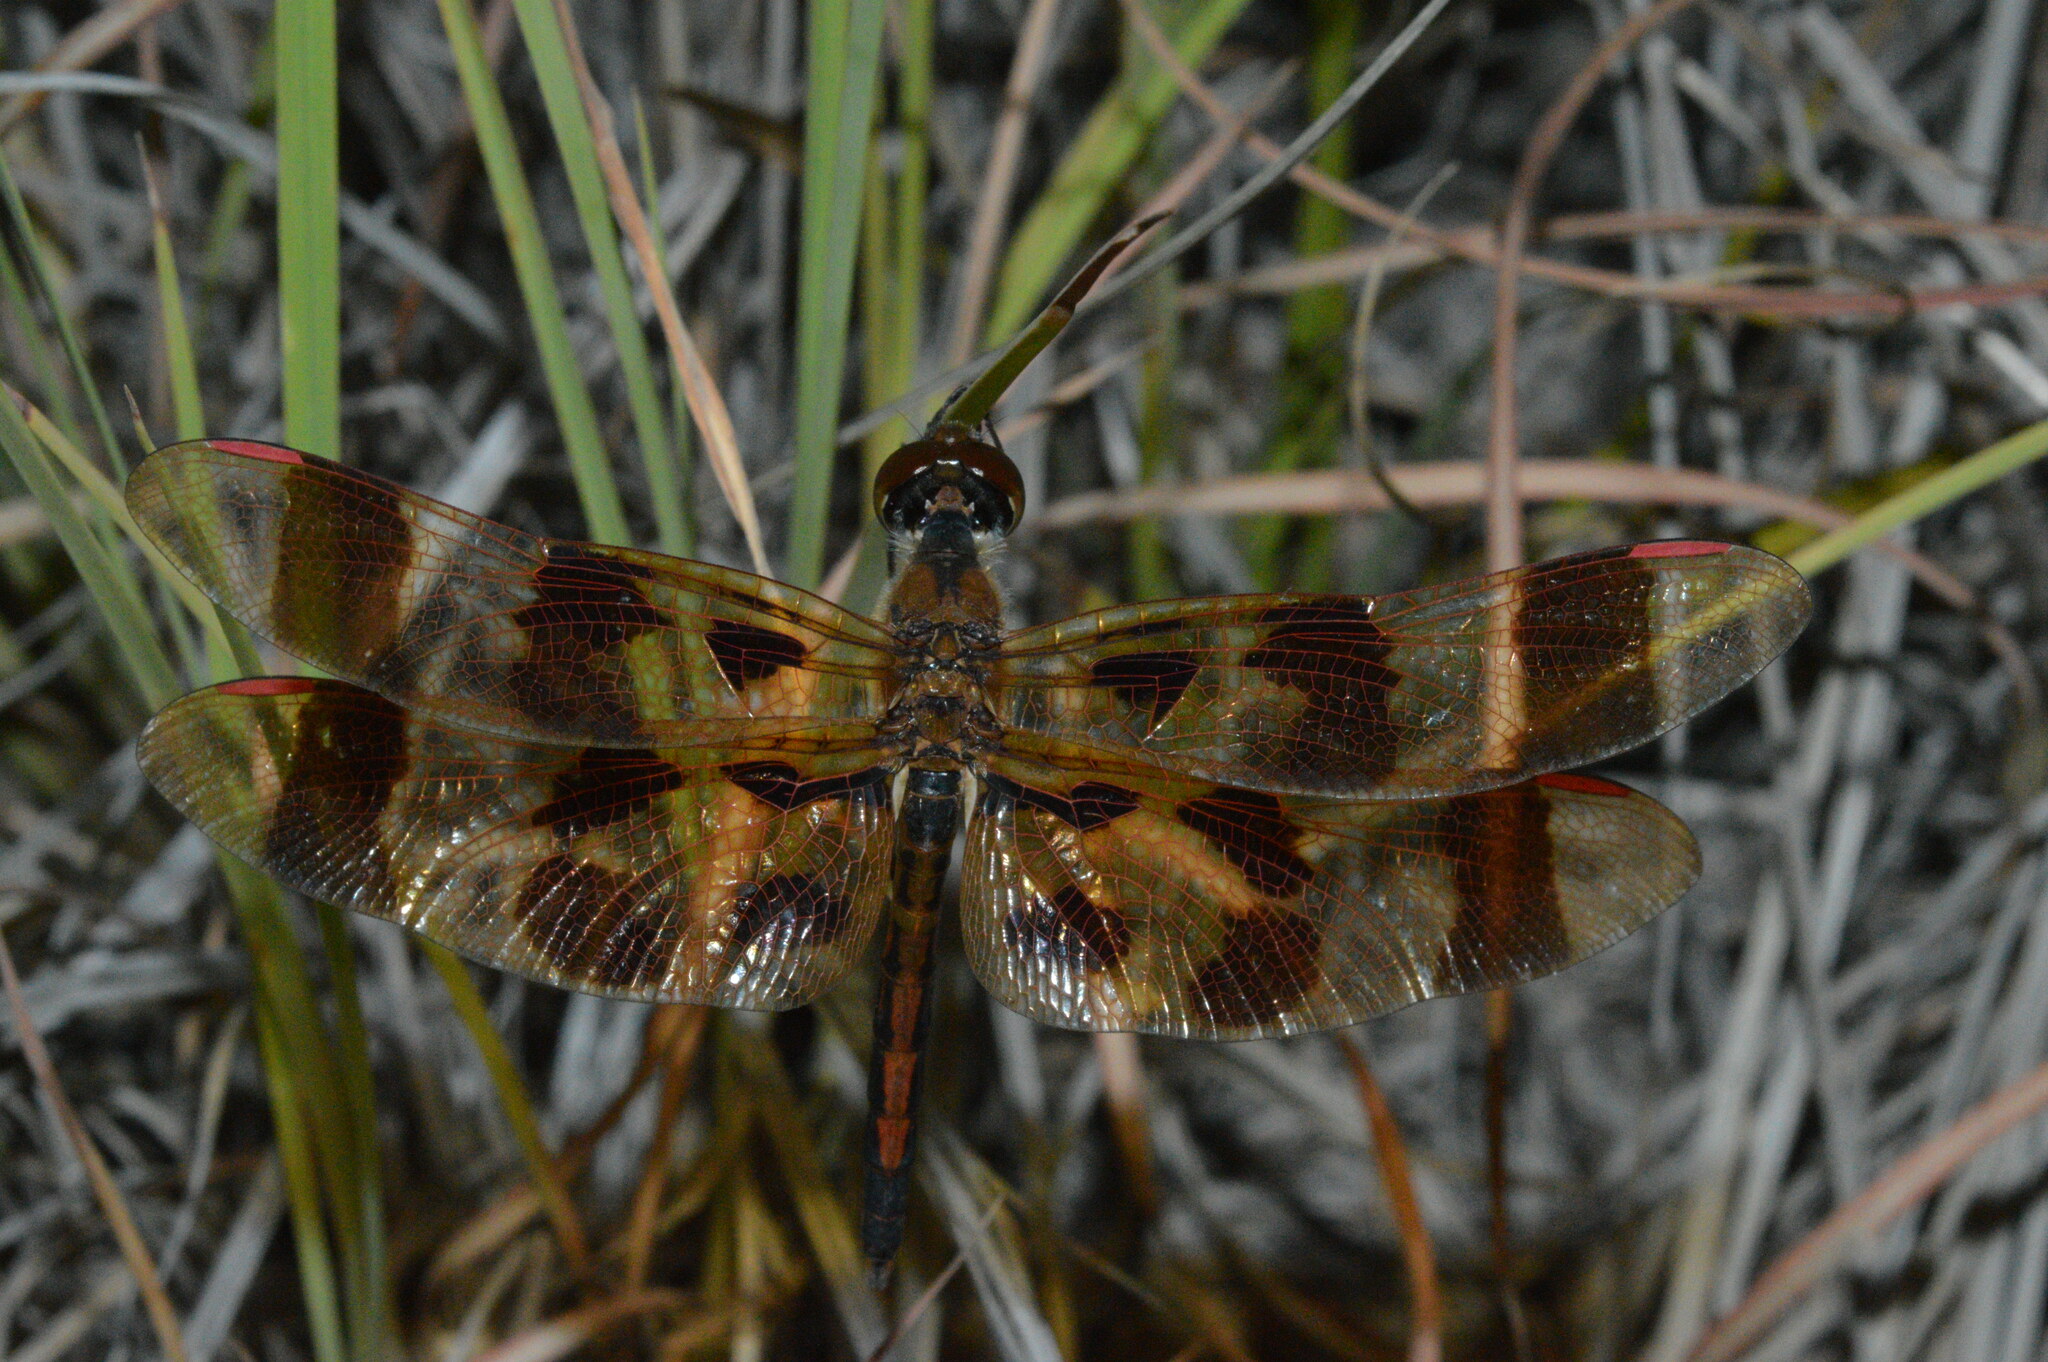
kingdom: Animalia
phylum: Arthropoda
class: Insecta
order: Odonata
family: Libellulidae
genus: Celithemis
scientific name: Celithemis eponina
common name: Halloween pennant
